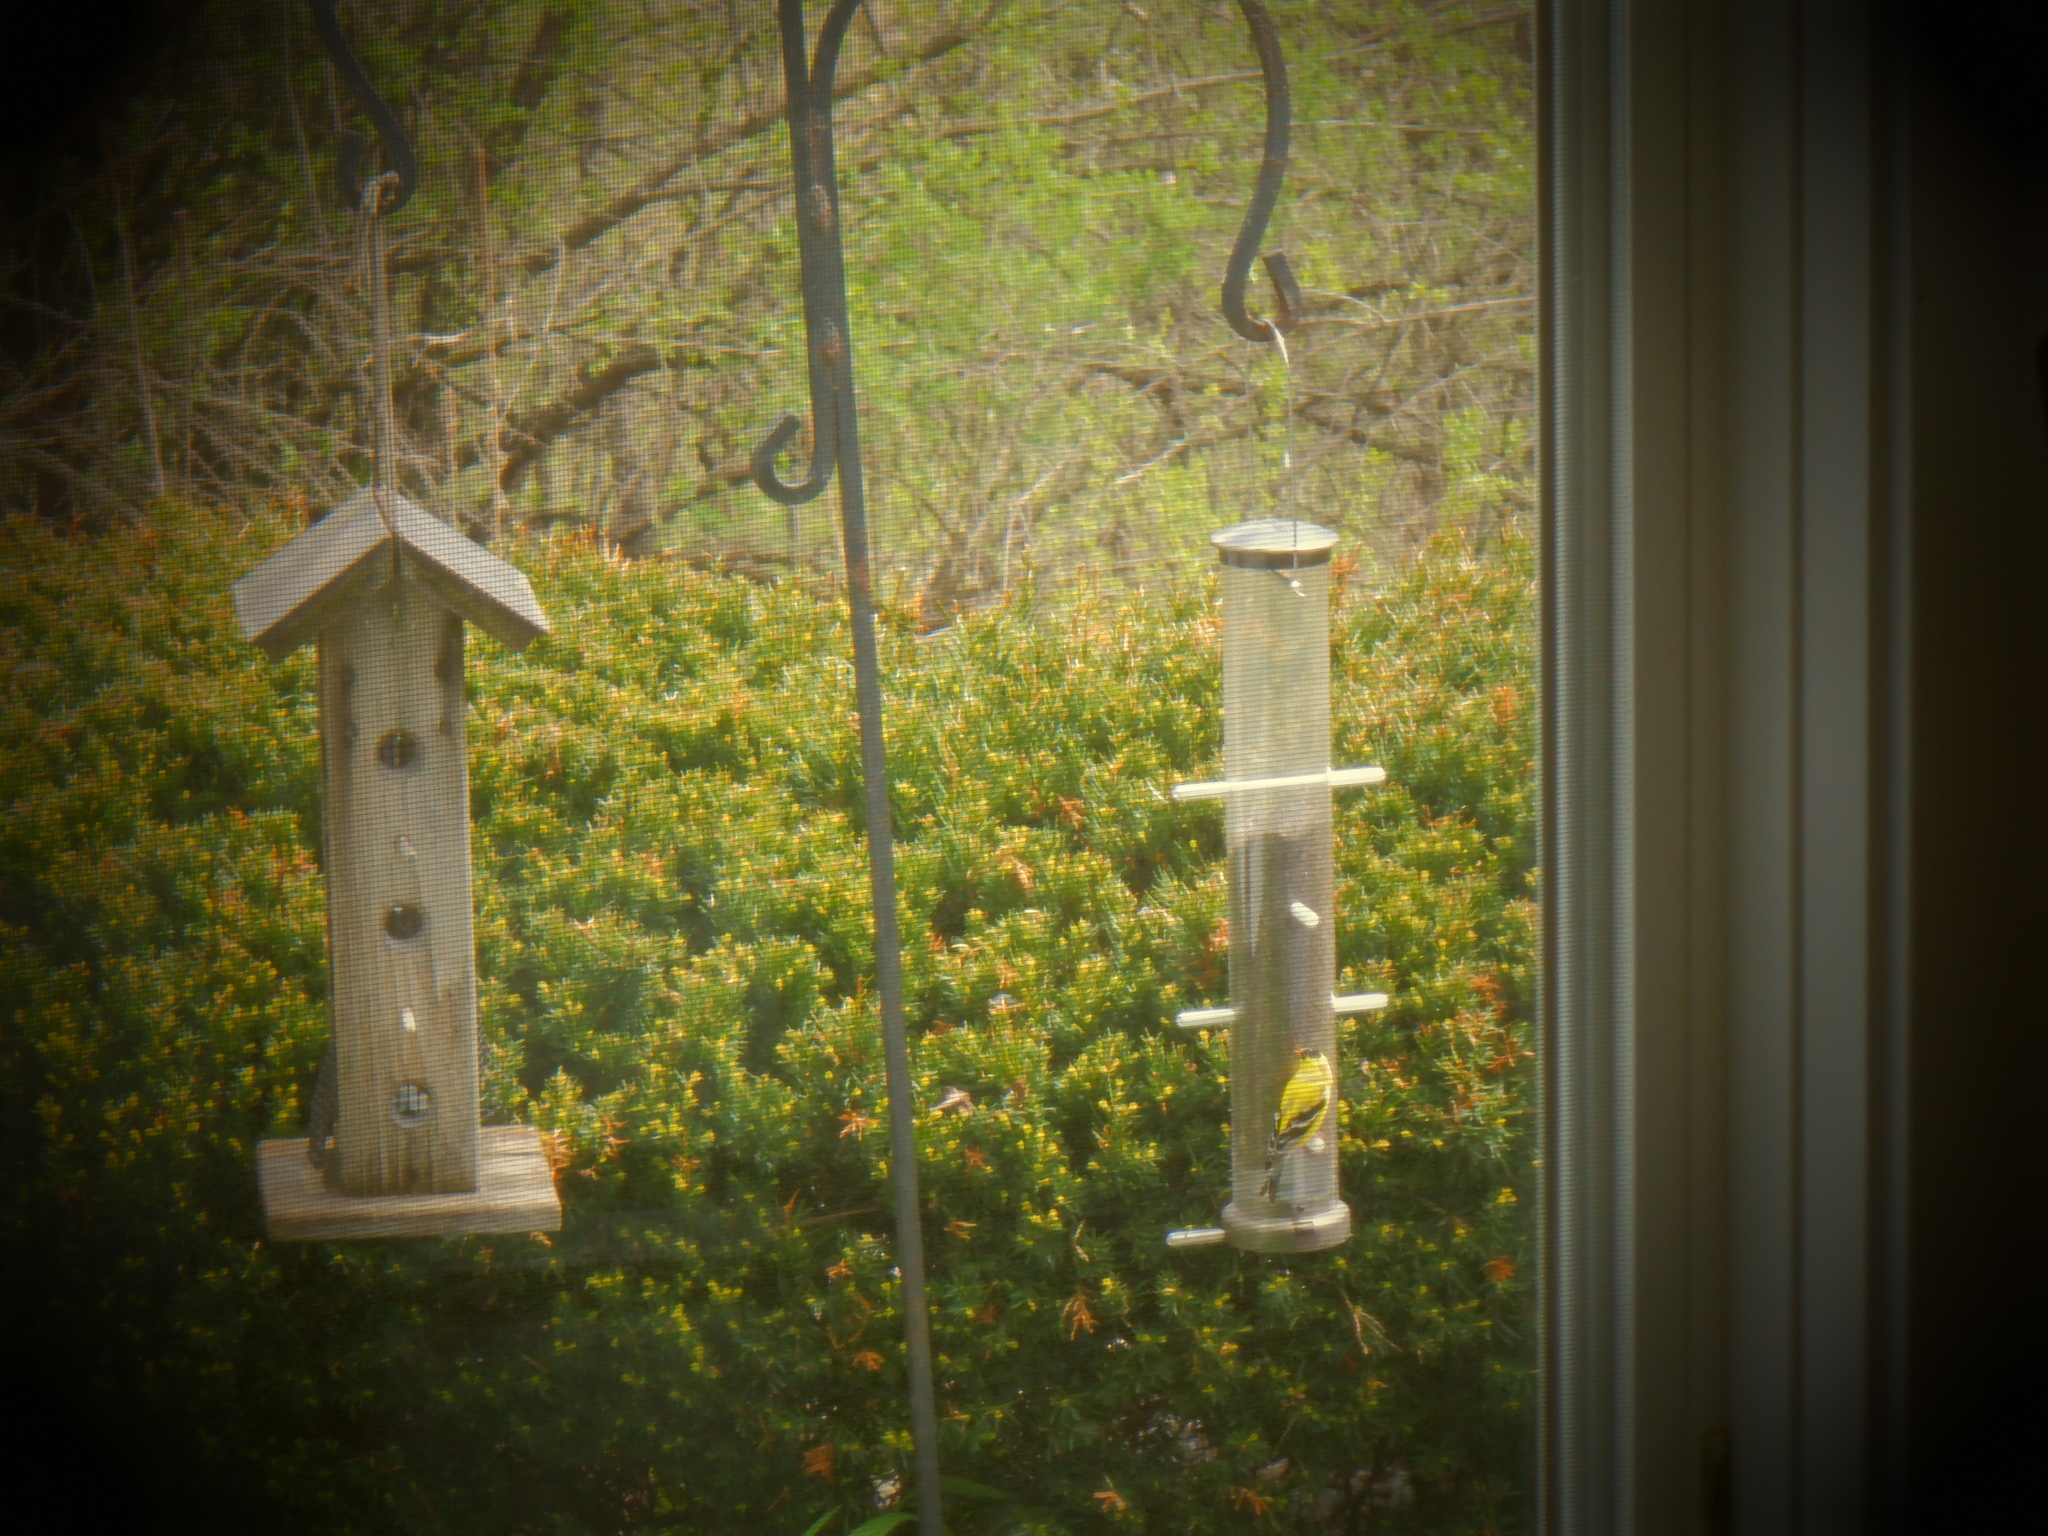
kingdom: Animalia
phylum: Chordata
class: Aves
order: Passeriformes
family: Fringillidae
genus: Spinus
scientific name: Spinus tristis
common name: American goldfinch
